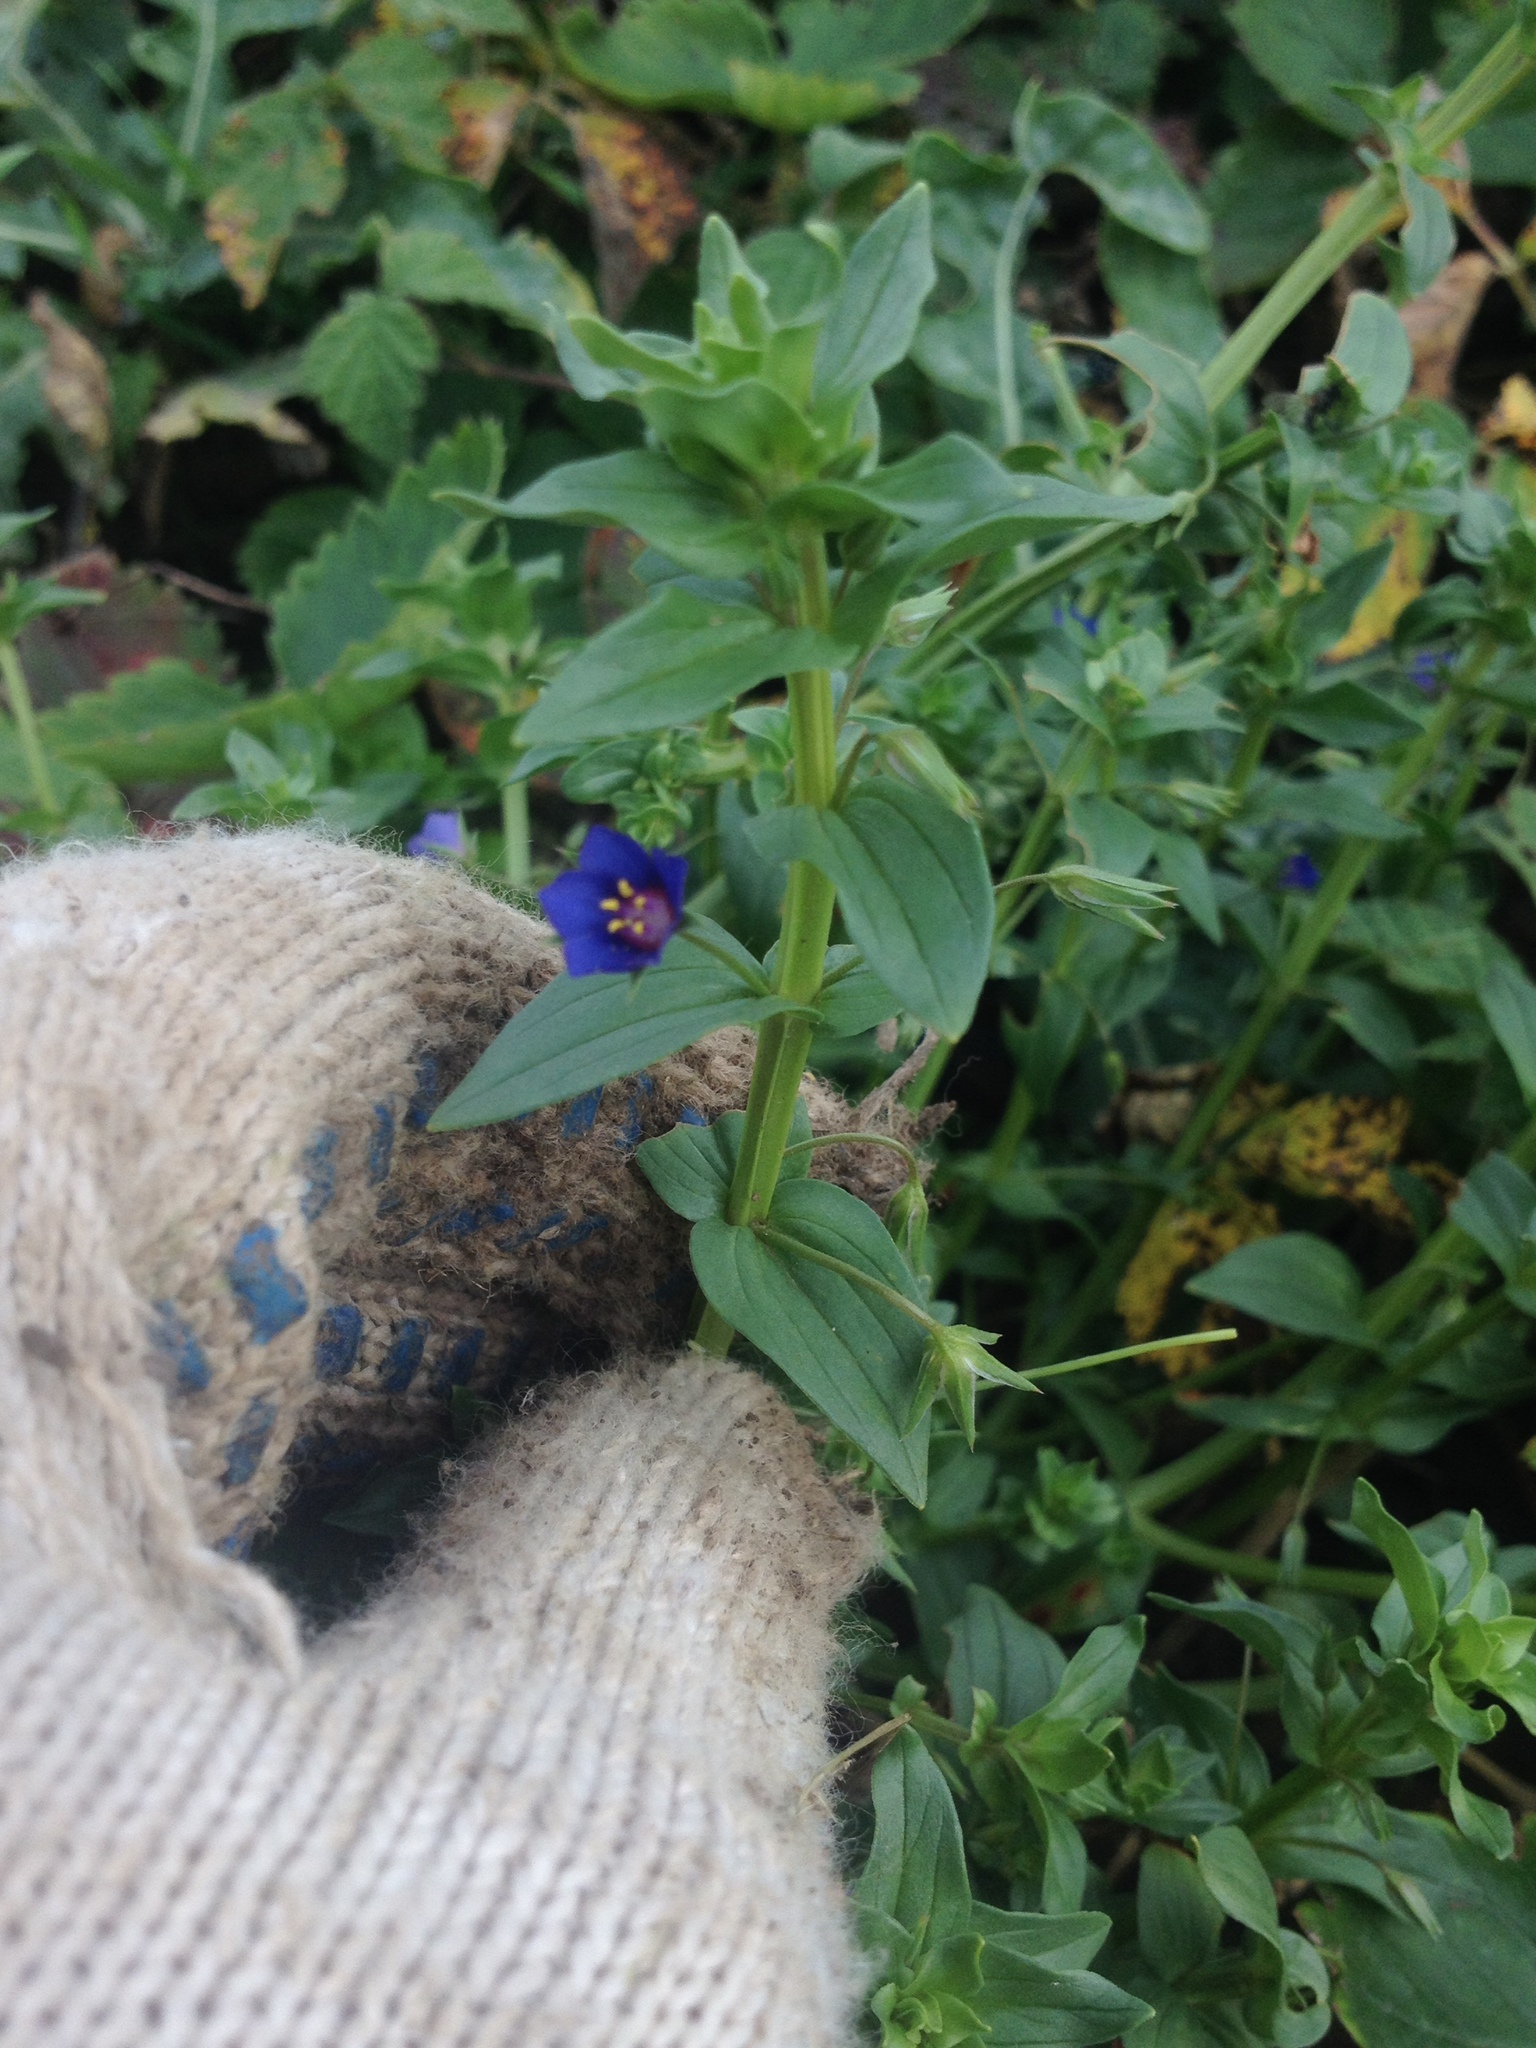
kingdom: Plantae
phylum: Tracheophyta
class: Magnoliopsida
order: Ericales
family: Primulaceae
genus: Lysimachia
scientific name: Lysimachia foemina
